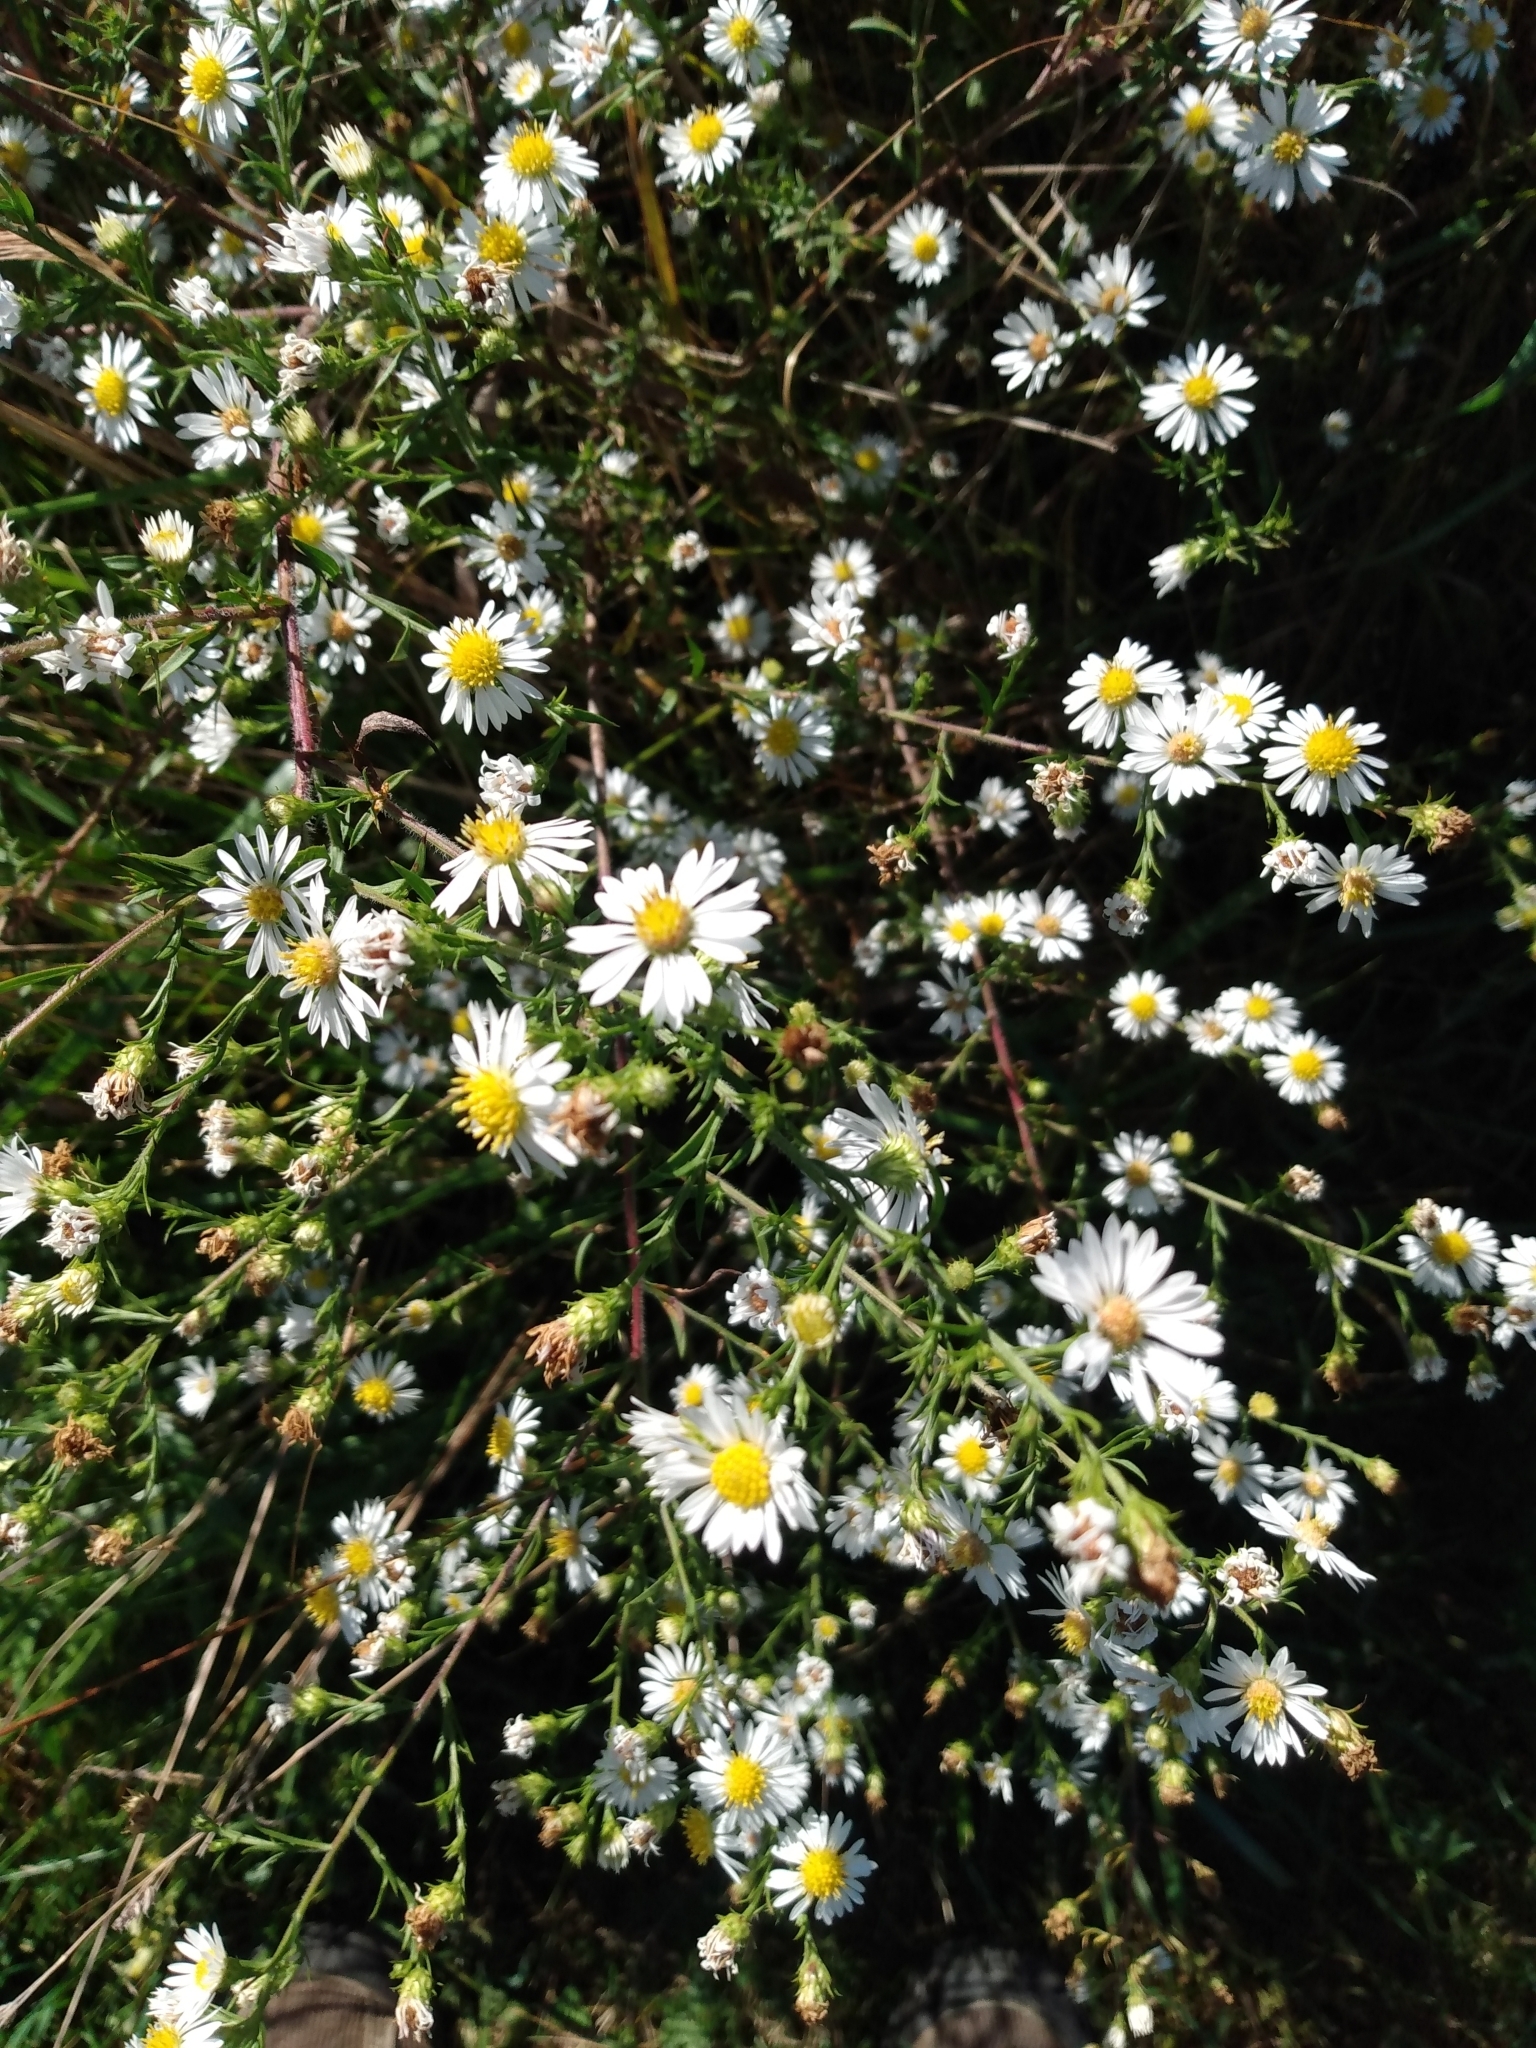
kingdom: Plantae
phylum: Tracheophyta
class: Magnoliopsida
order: Asterales
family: Asteraceae
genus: Symphyotrichum
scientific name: Symphyotrichum pilosum
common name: Awl aster
